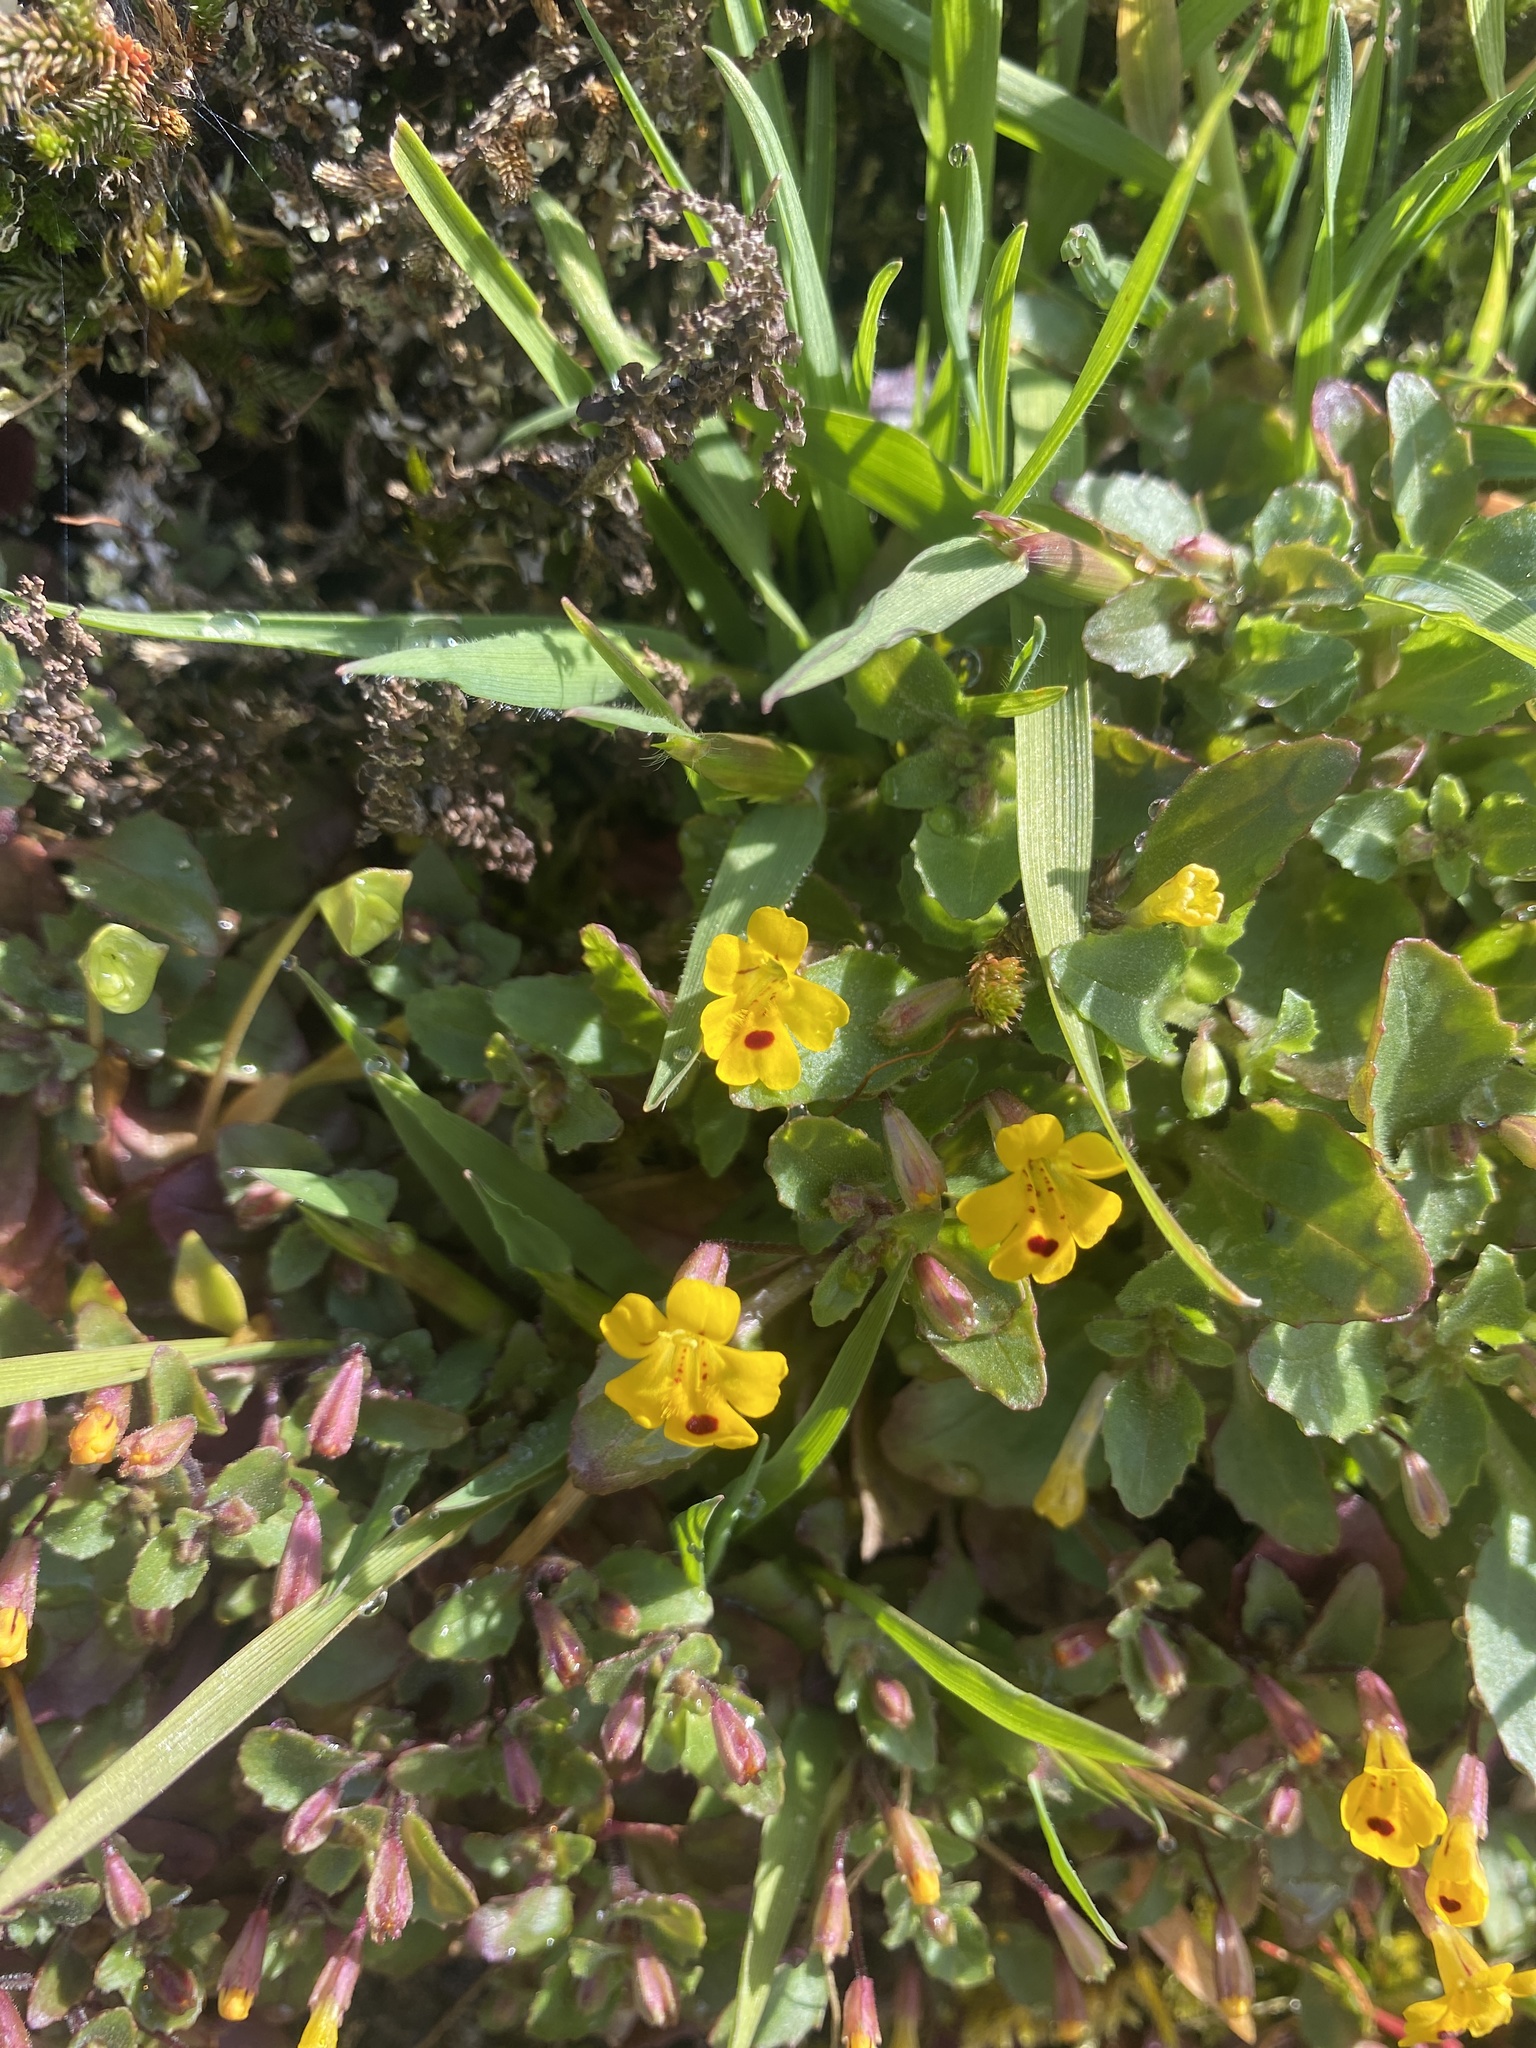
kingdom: Plantae
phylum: Tracheophyta
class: Magnoliopsida
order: Lamiales
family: Phrymaceae
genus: Erythranthe
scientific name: Erythranthe alsinoides
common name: Chickweed monkeyflower
